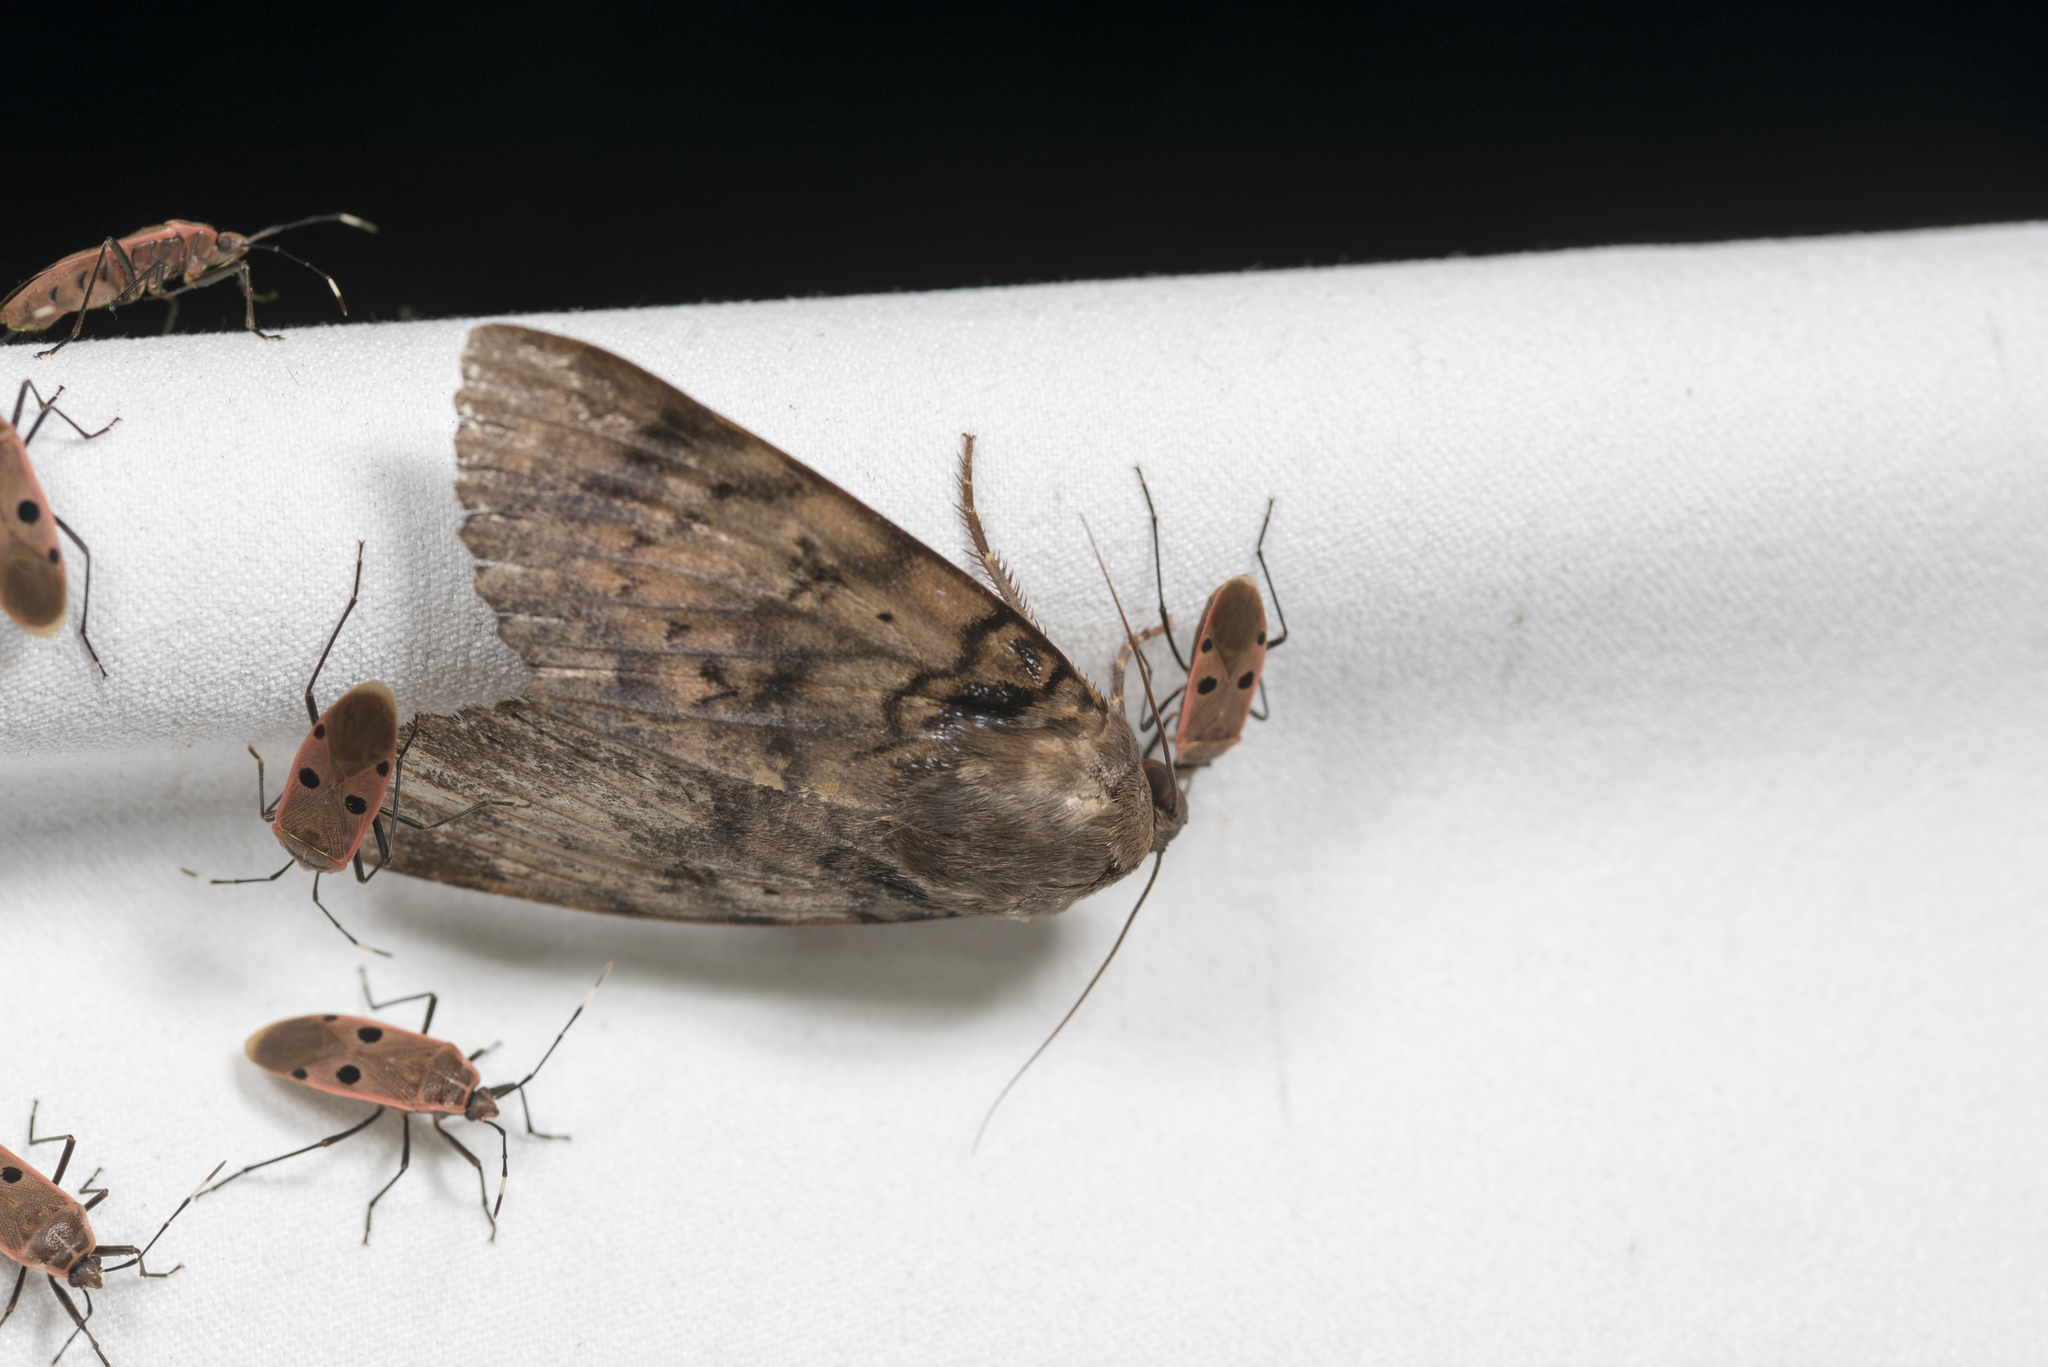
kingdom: Animalia
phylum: Arthropoda
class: Insecta
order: Lepidoptera
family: Erebidae
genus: Arcte
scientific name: Arcte coerula
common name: Ramie moth
